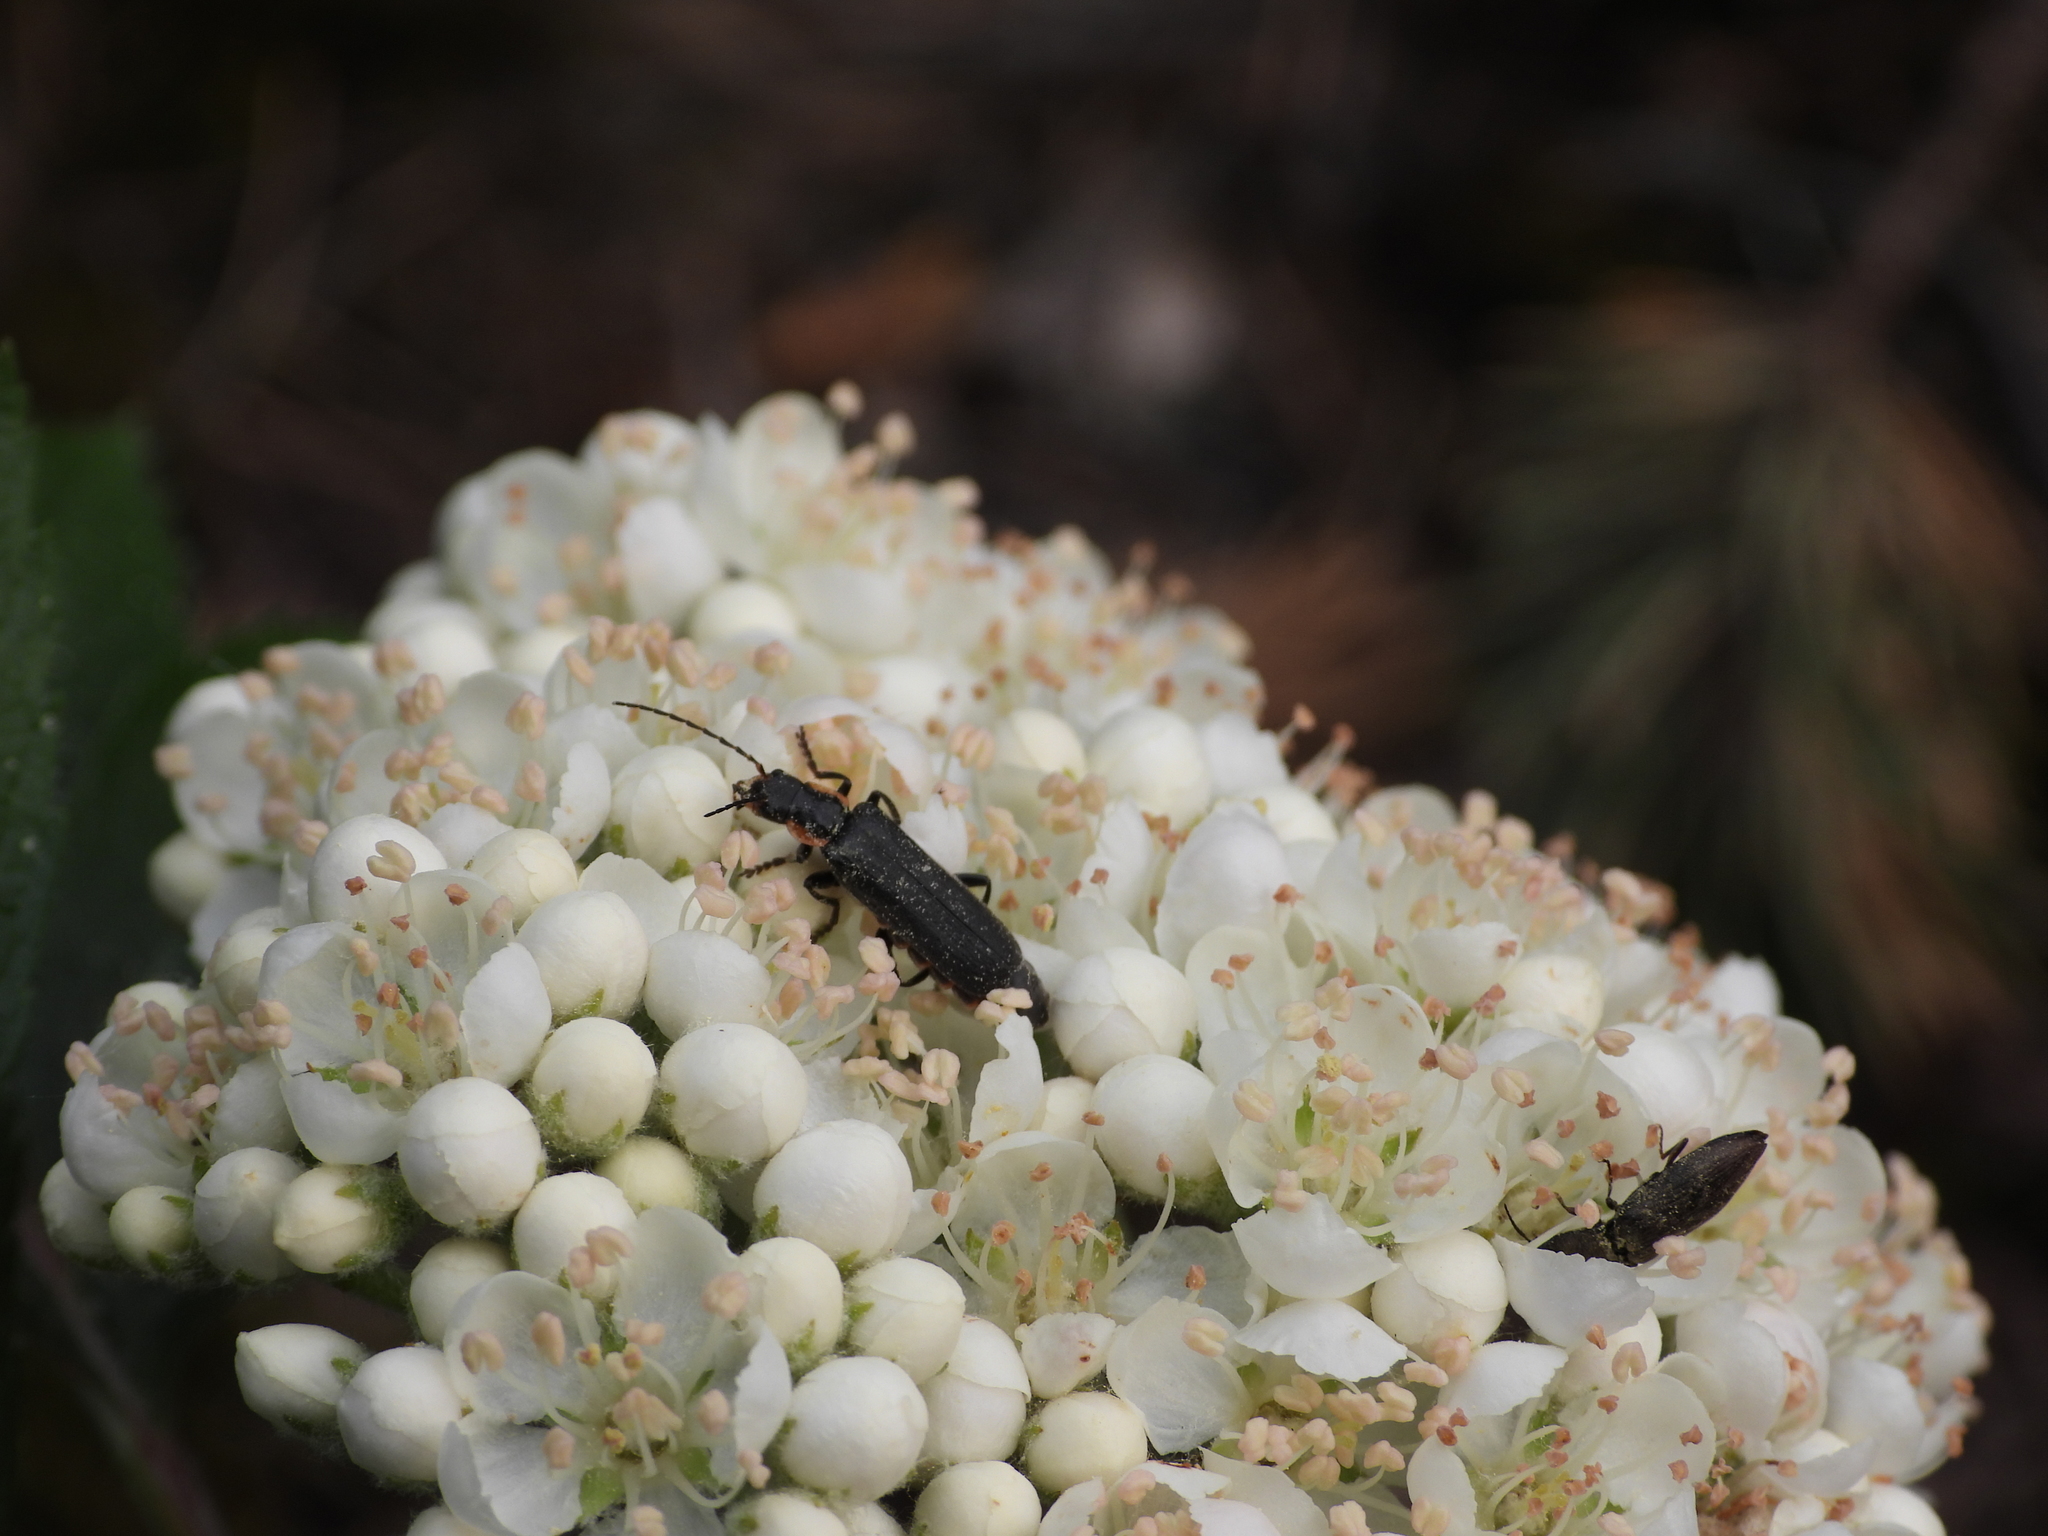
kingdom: Animalia
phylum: Arthropoda
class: Insecta
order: Coleoptera
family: Cantharidae
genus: Cantharis
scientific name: Cantharis obscura
